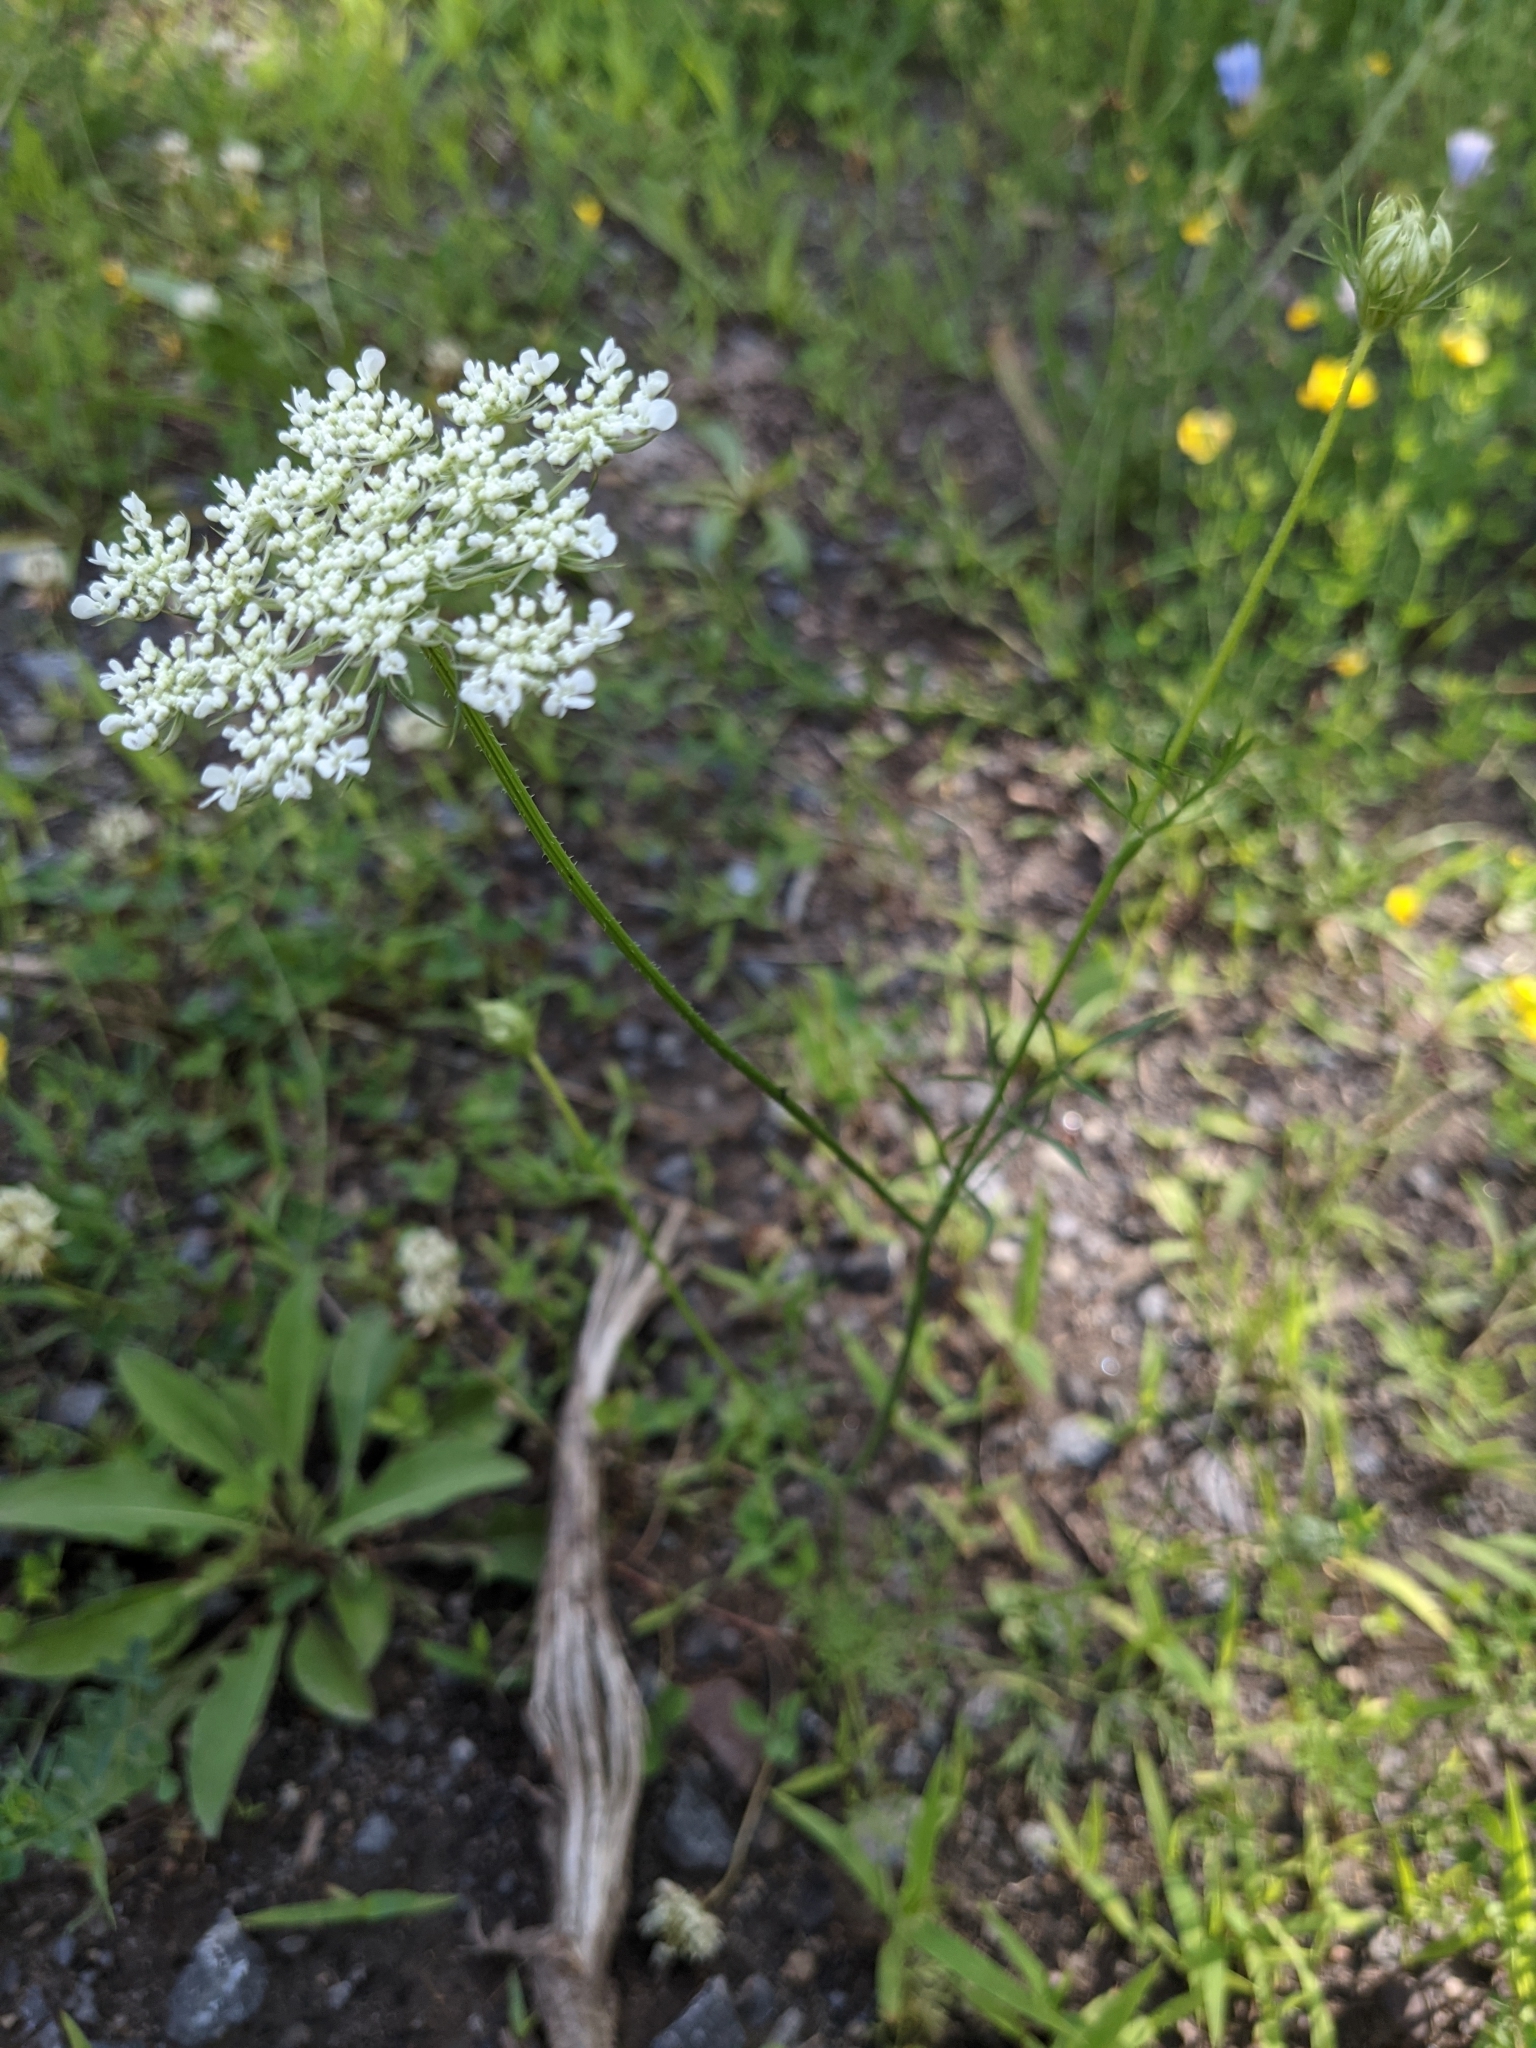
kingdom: Plantae
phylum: Tracheophyta
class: Magnoliopsida
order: Apiales
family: Apiaceae
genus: Daucus
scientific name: Daucus carota
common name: Wild carrot
